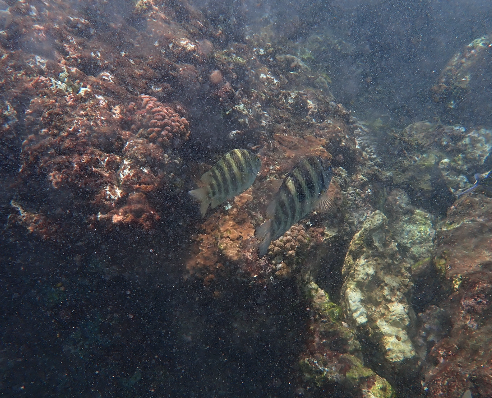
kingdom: Animalia
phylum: Chordata
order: Perciformes
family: Pomacentridae
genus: Abudefduf
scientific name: Abudefduf septemfasciatus
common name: Banded sergeant
